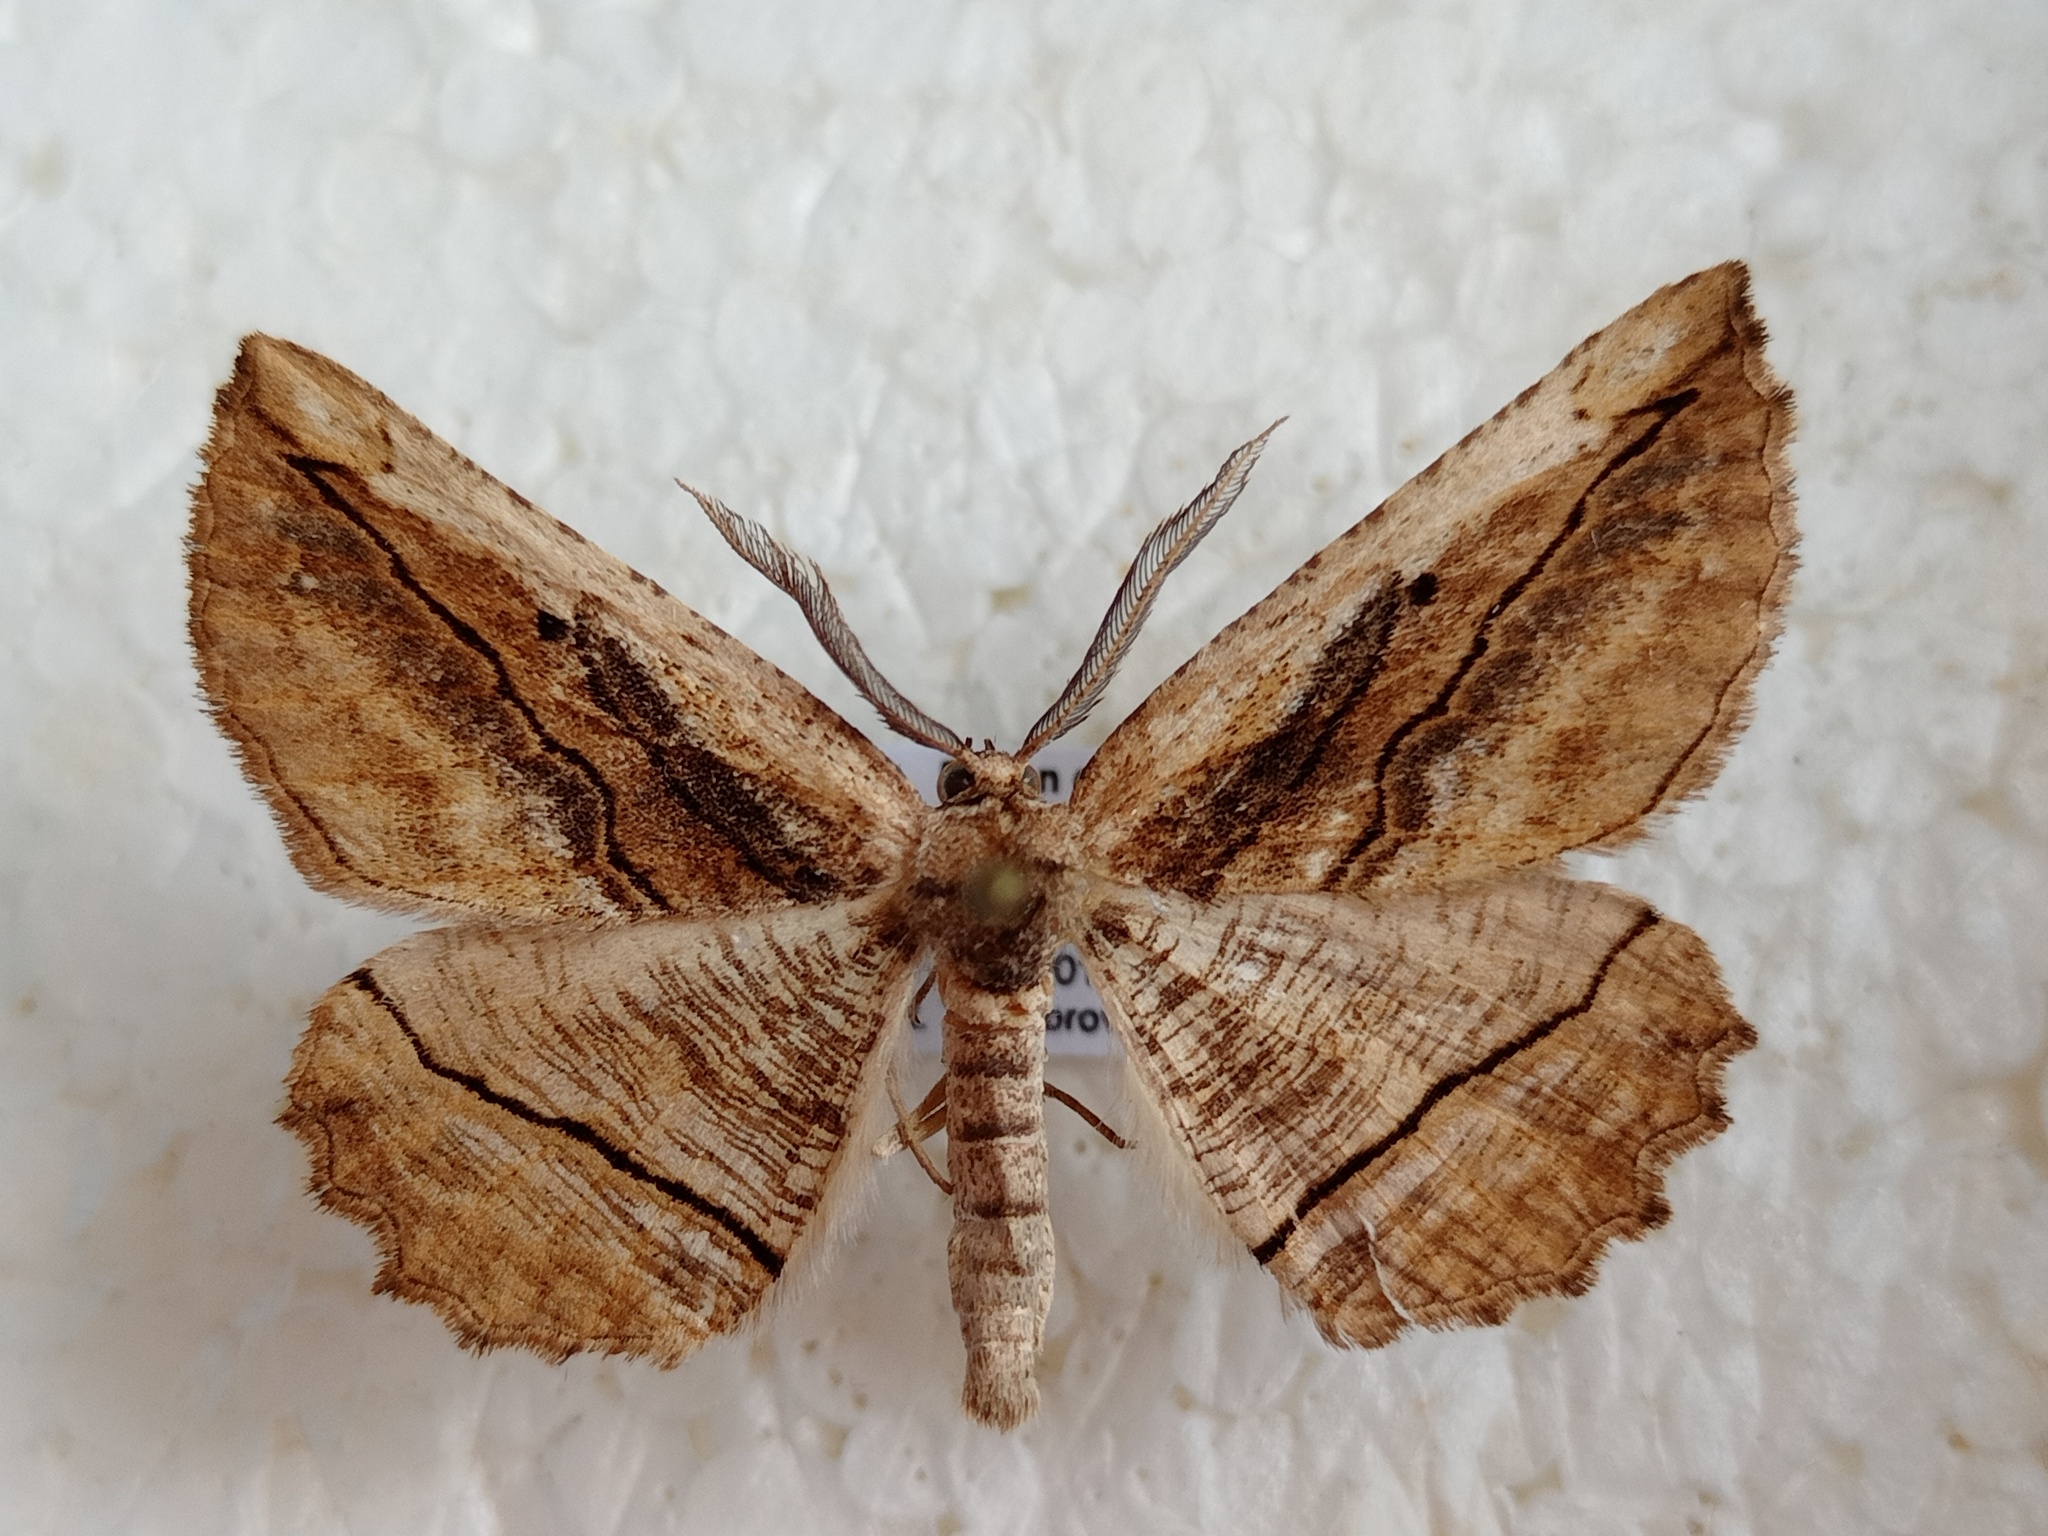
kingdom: Animalia
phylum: Arthropoda
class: Insecta
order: Lepidoptera
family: Geometridae
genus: Menophra
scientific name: Menophra nycthemeraria
